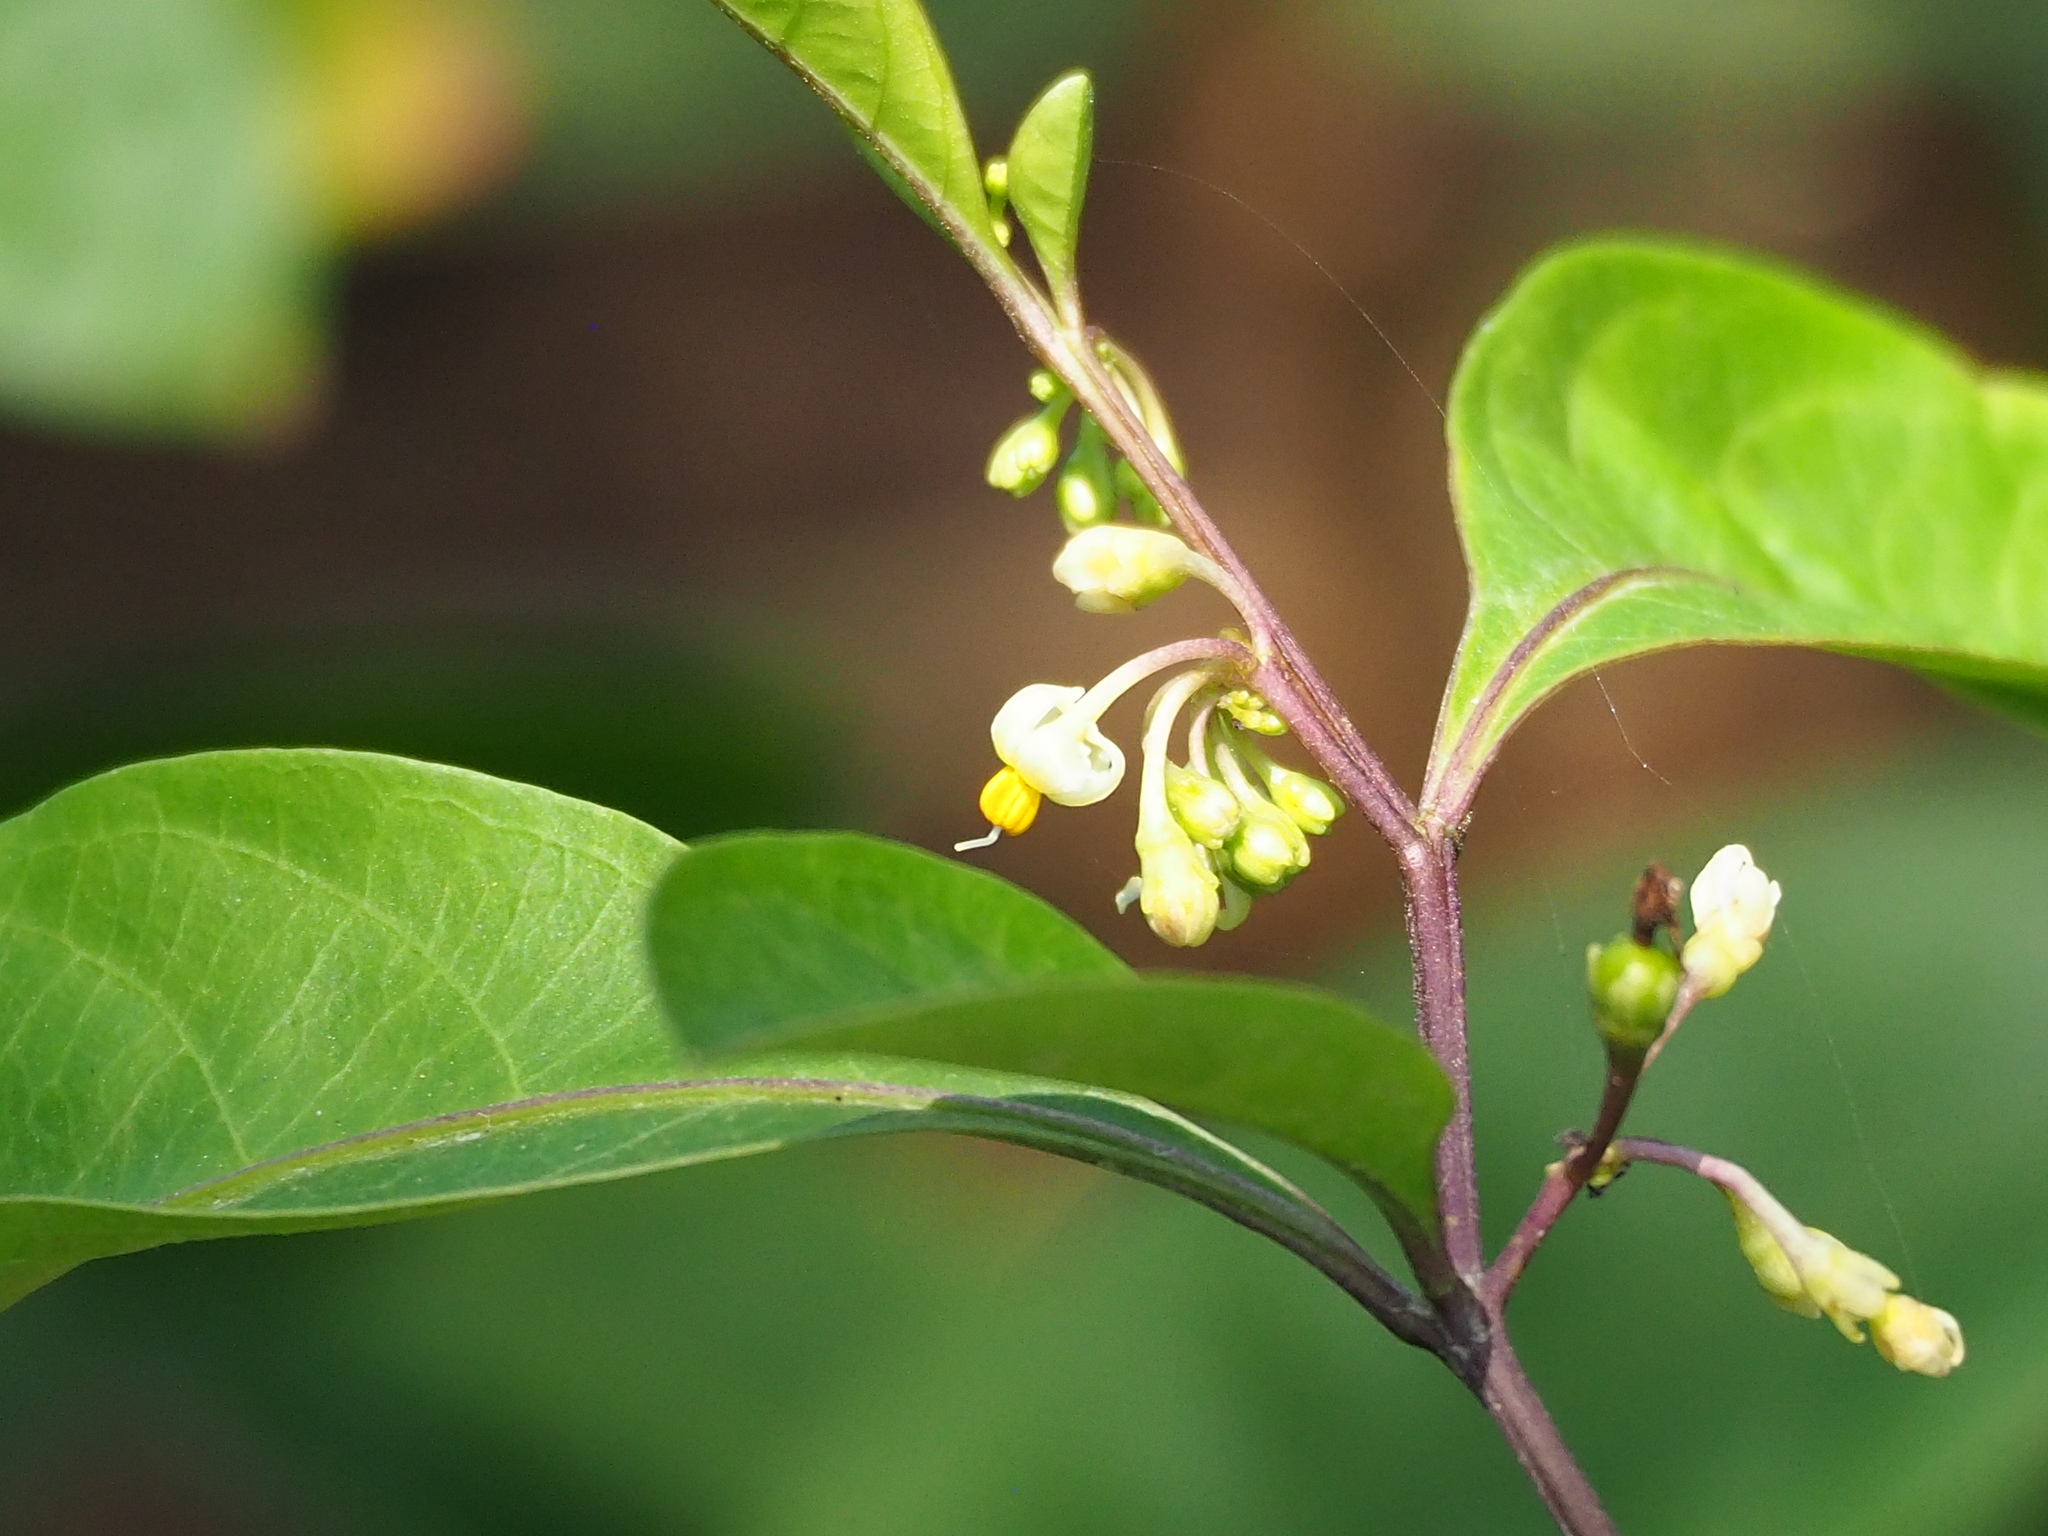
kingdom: Plantae
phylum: Tracheophyta
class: Magnoliopsida
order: Solanales
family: Solanaceae
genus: Solanum
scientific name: Solanum diphyllum
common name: Twoleaf nightshade
